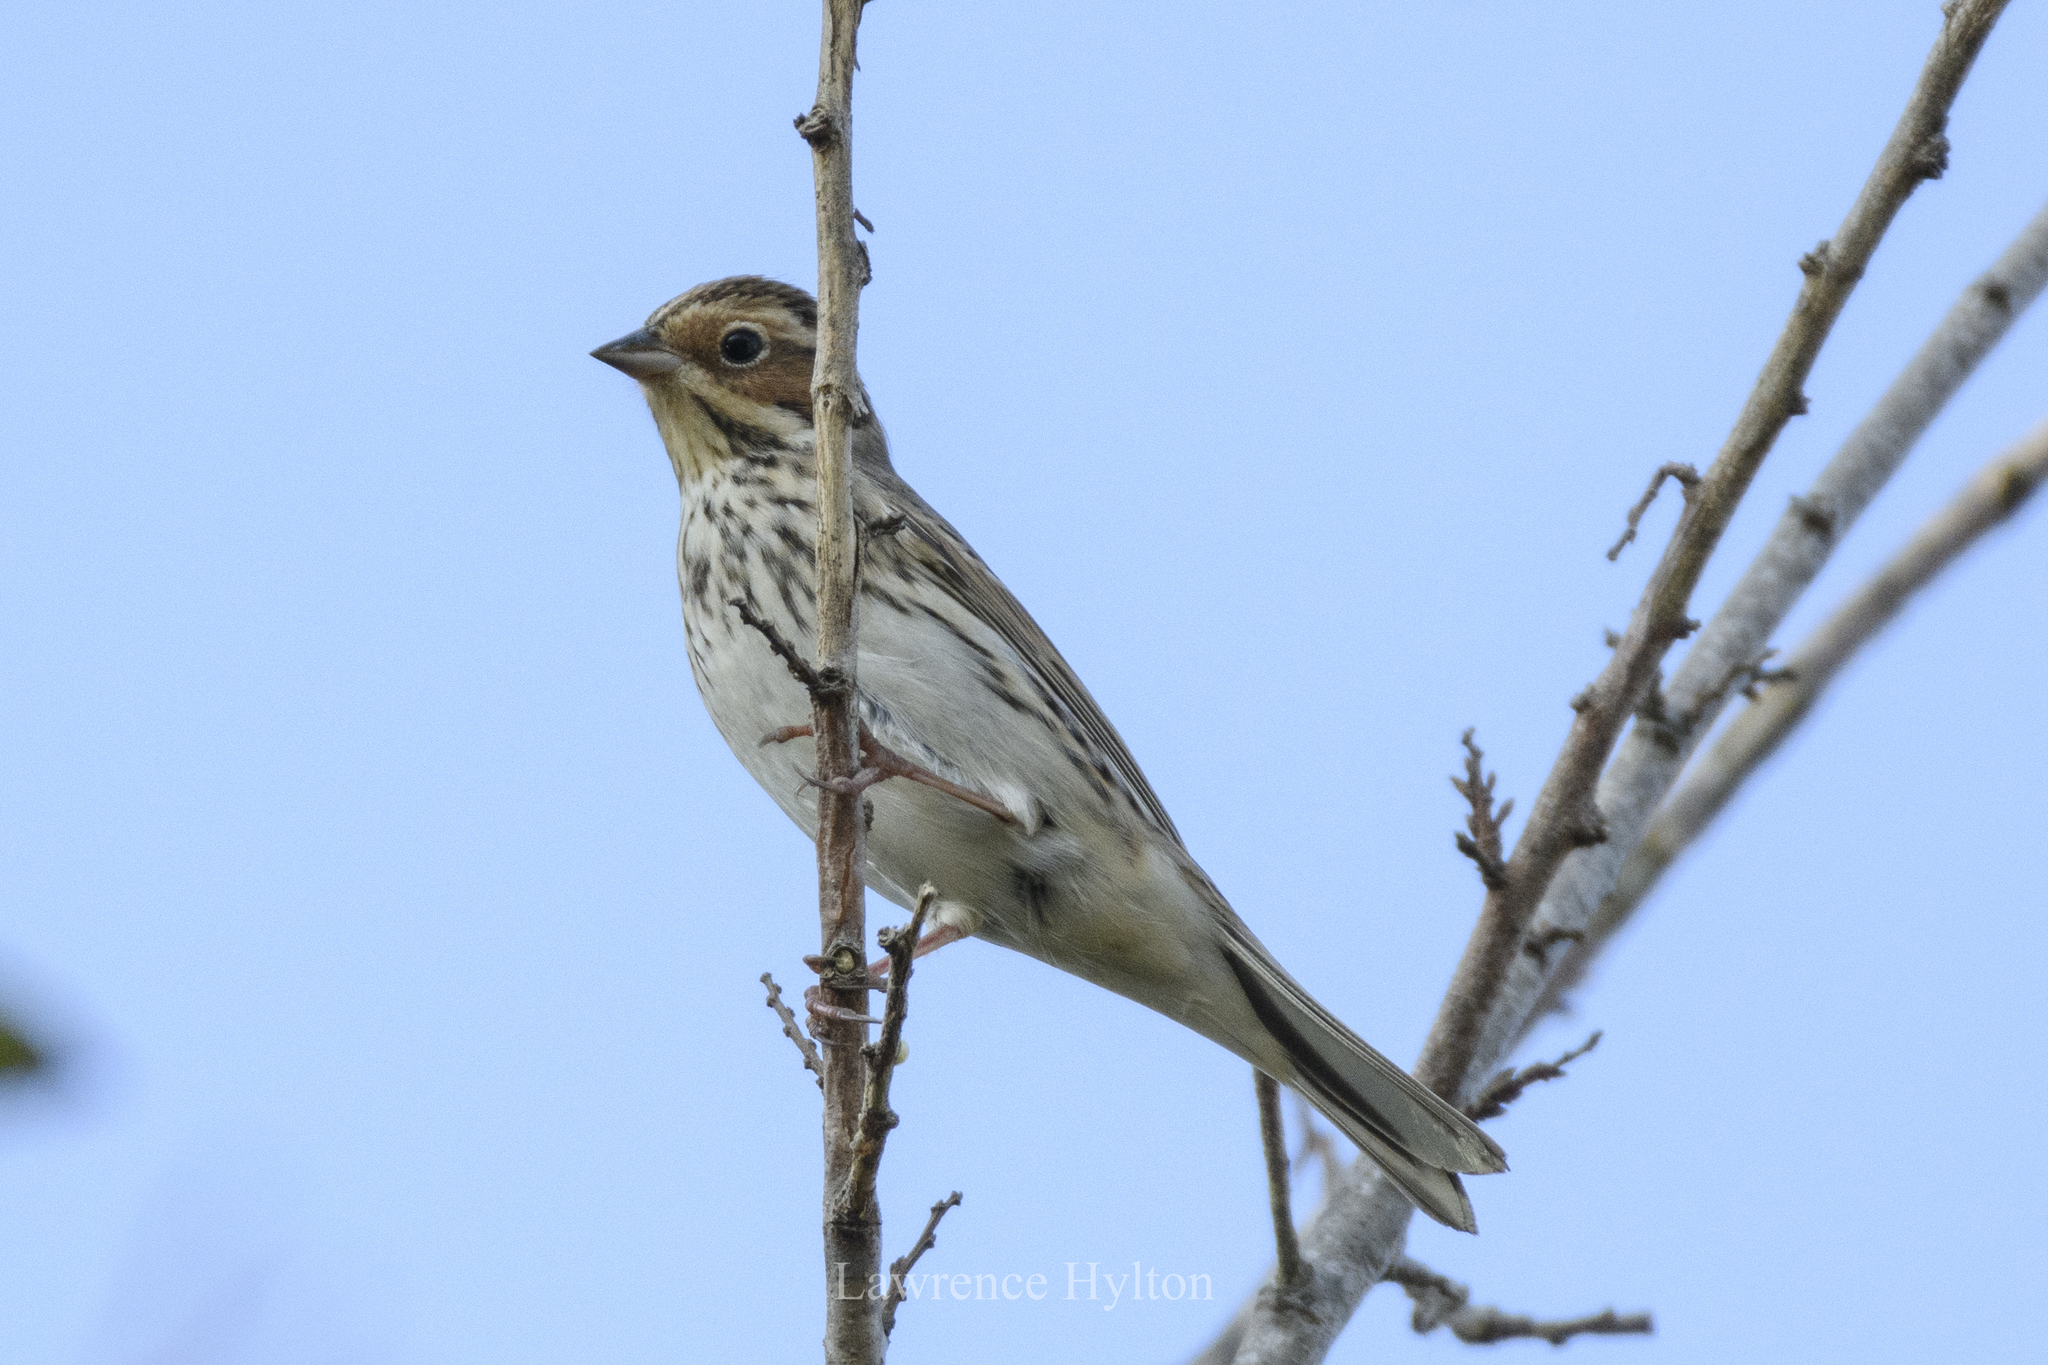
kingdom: Animalia
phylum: Chordata
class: Aves
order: Passeriformes
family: Emberizidae
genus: Emberiza
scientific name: Emberiza pusilla
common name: Little bunting
